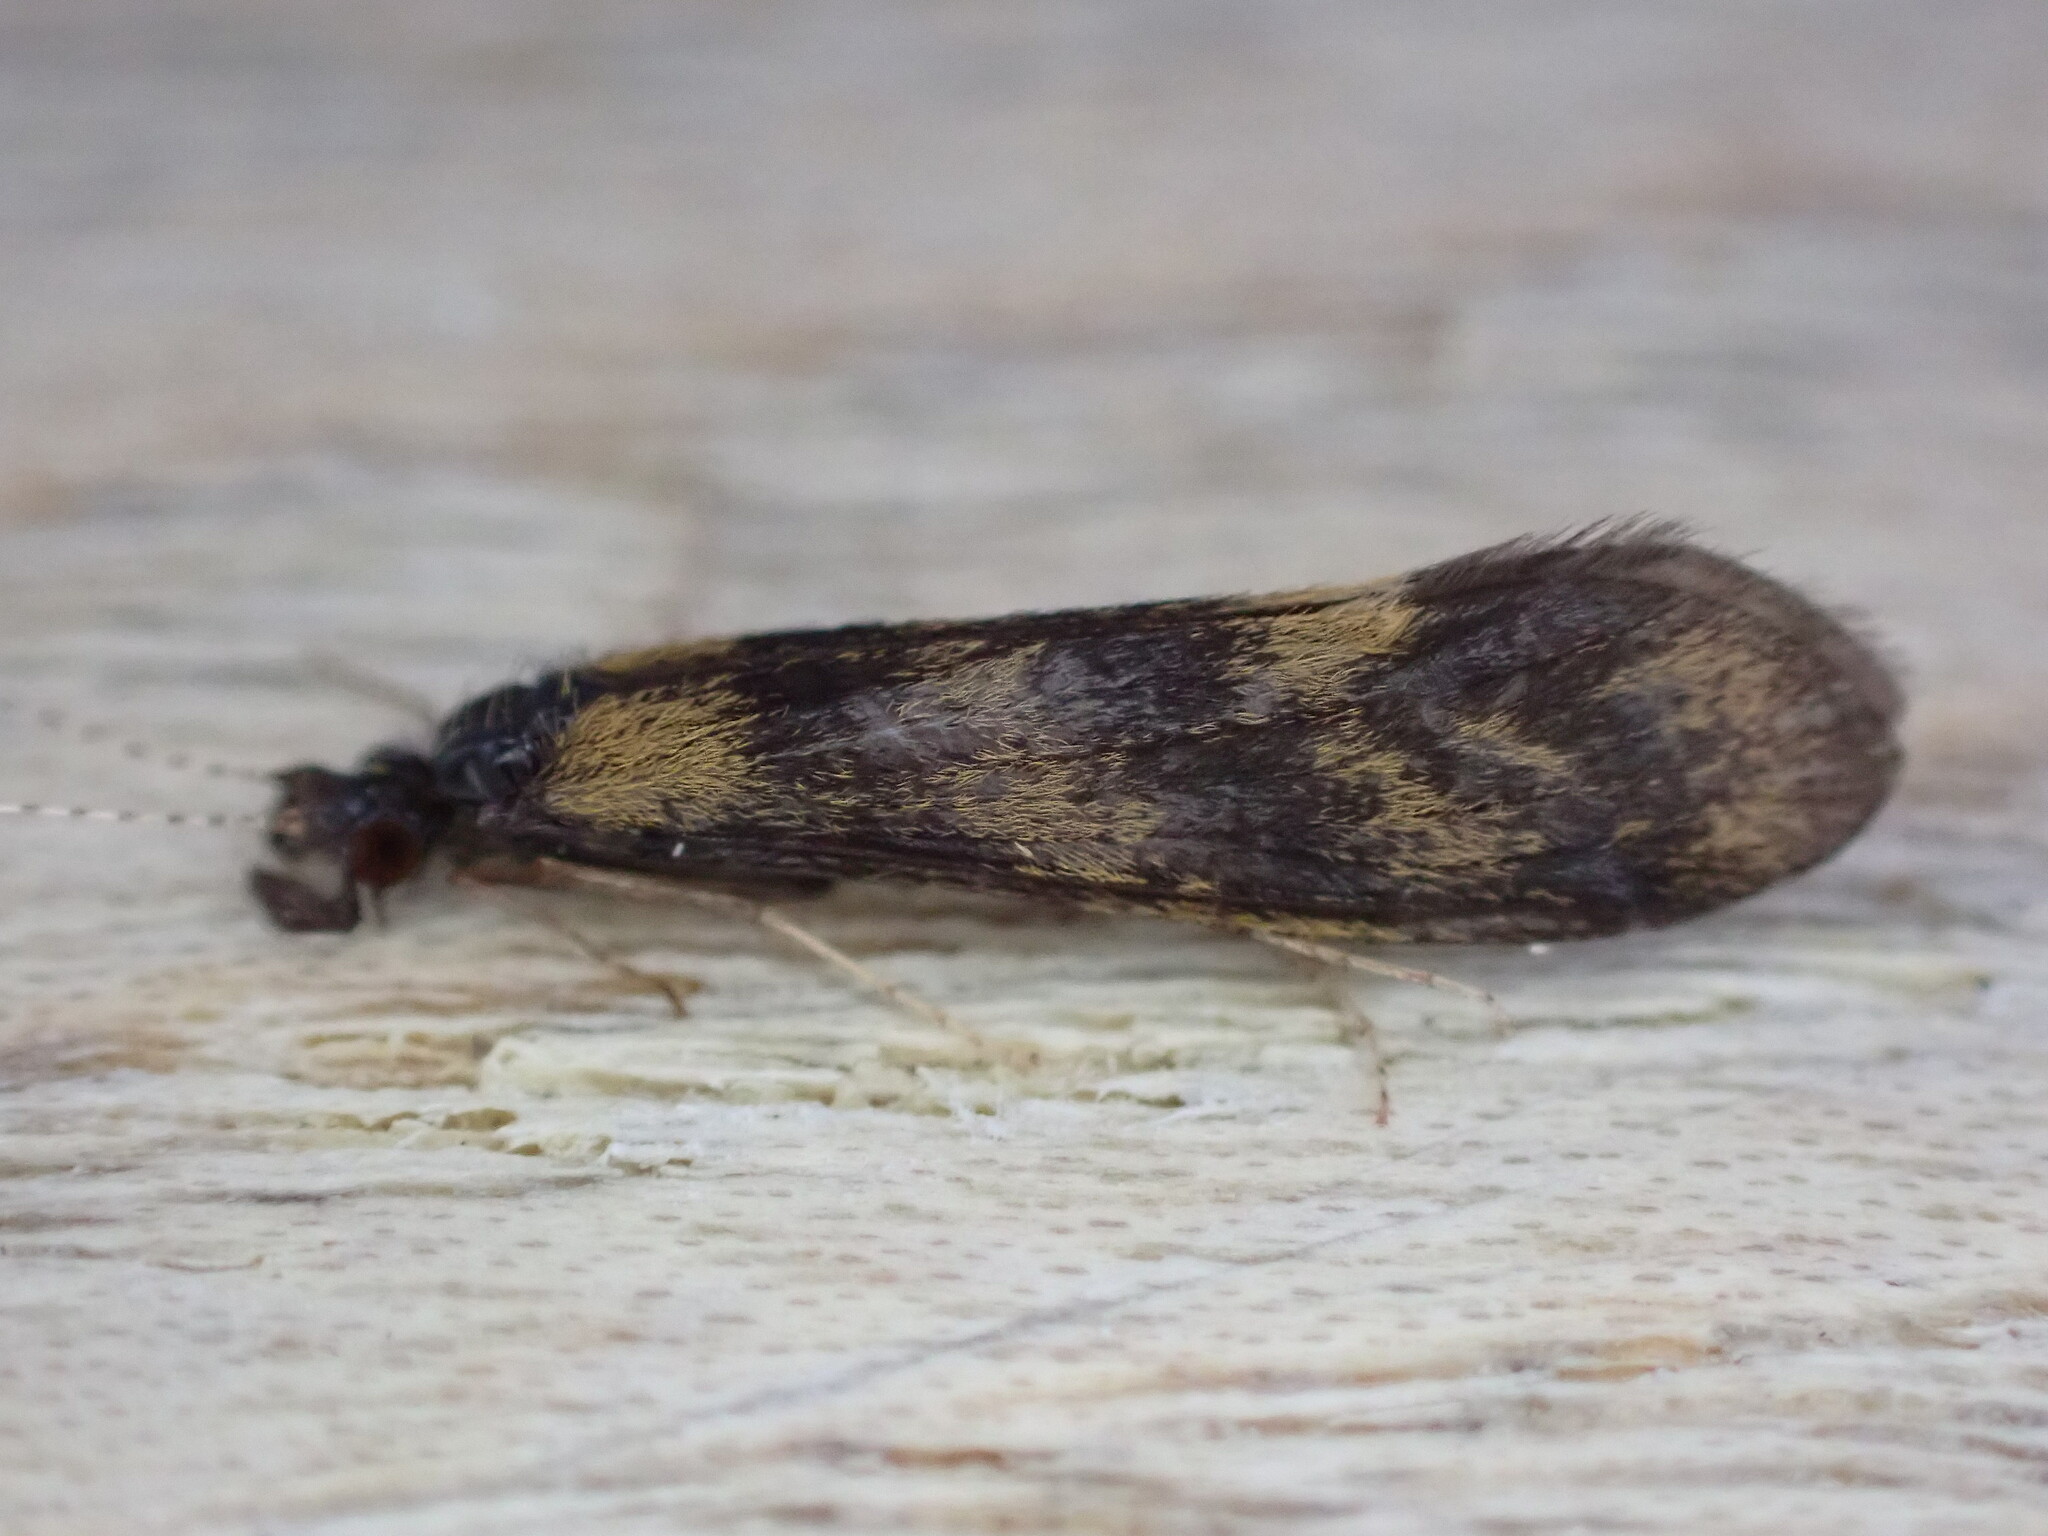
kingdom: Animalia
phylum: Arthropoda
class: Insecta
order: Trichoptera
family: Leptoceridae
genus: Mystacides
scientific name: Mystacides longicornis
